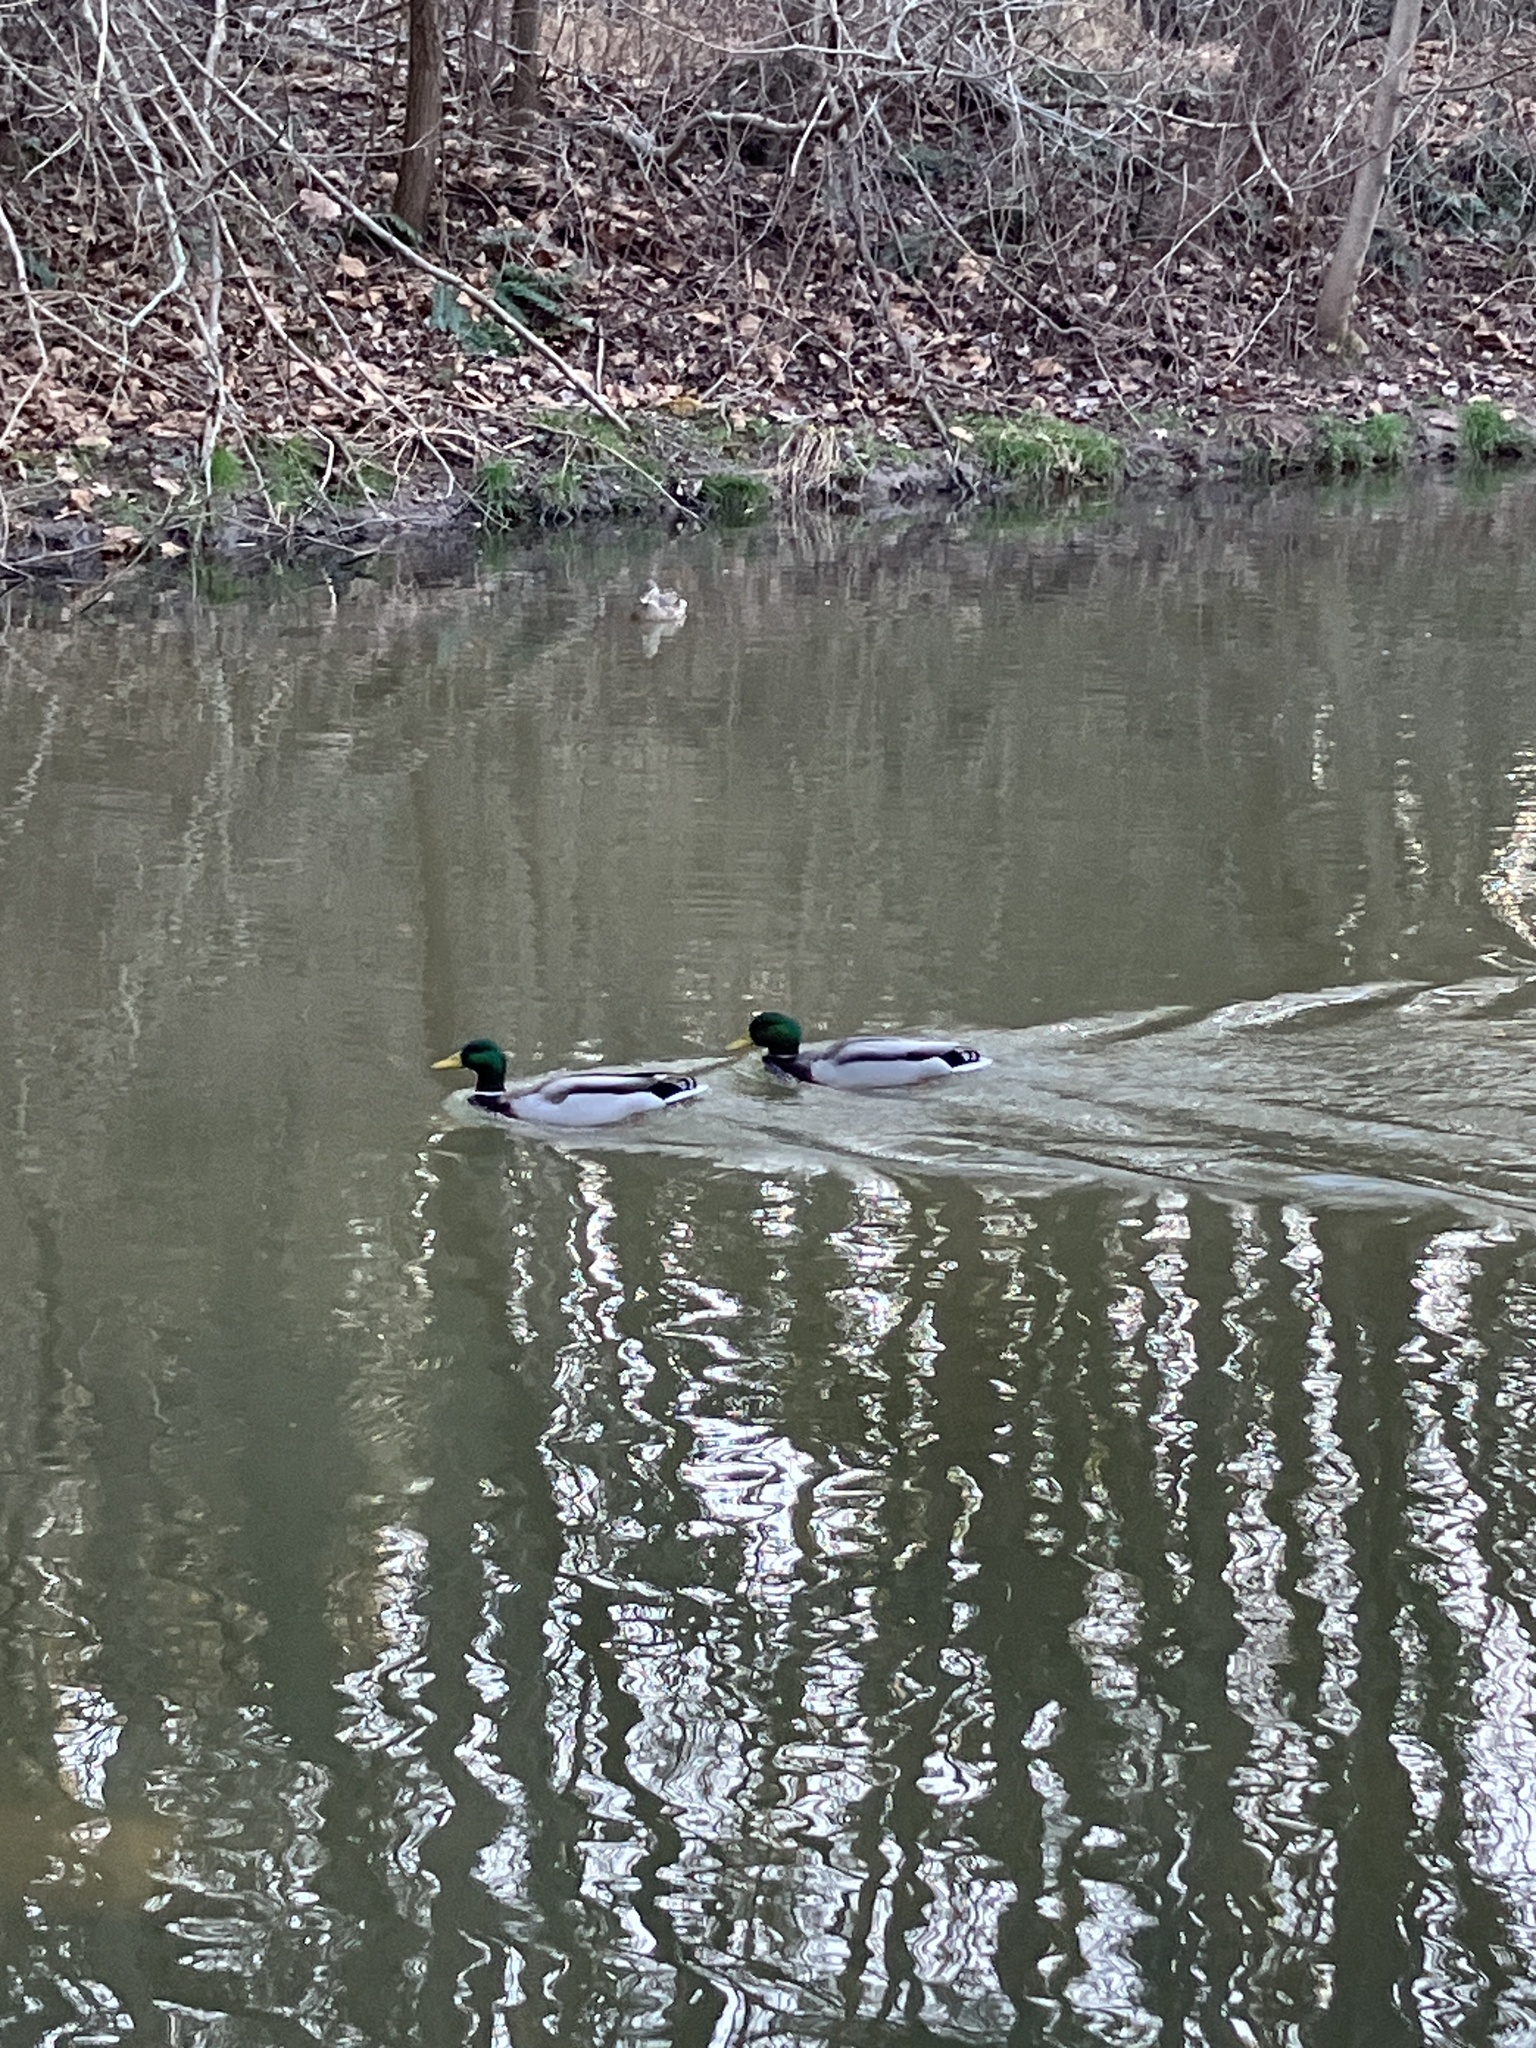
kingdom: Animalia
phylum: Chordata
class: Aves
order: Anseriformes
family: Anatidae
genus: Anas
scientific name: Anas platyrhynchos
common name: Mallard
